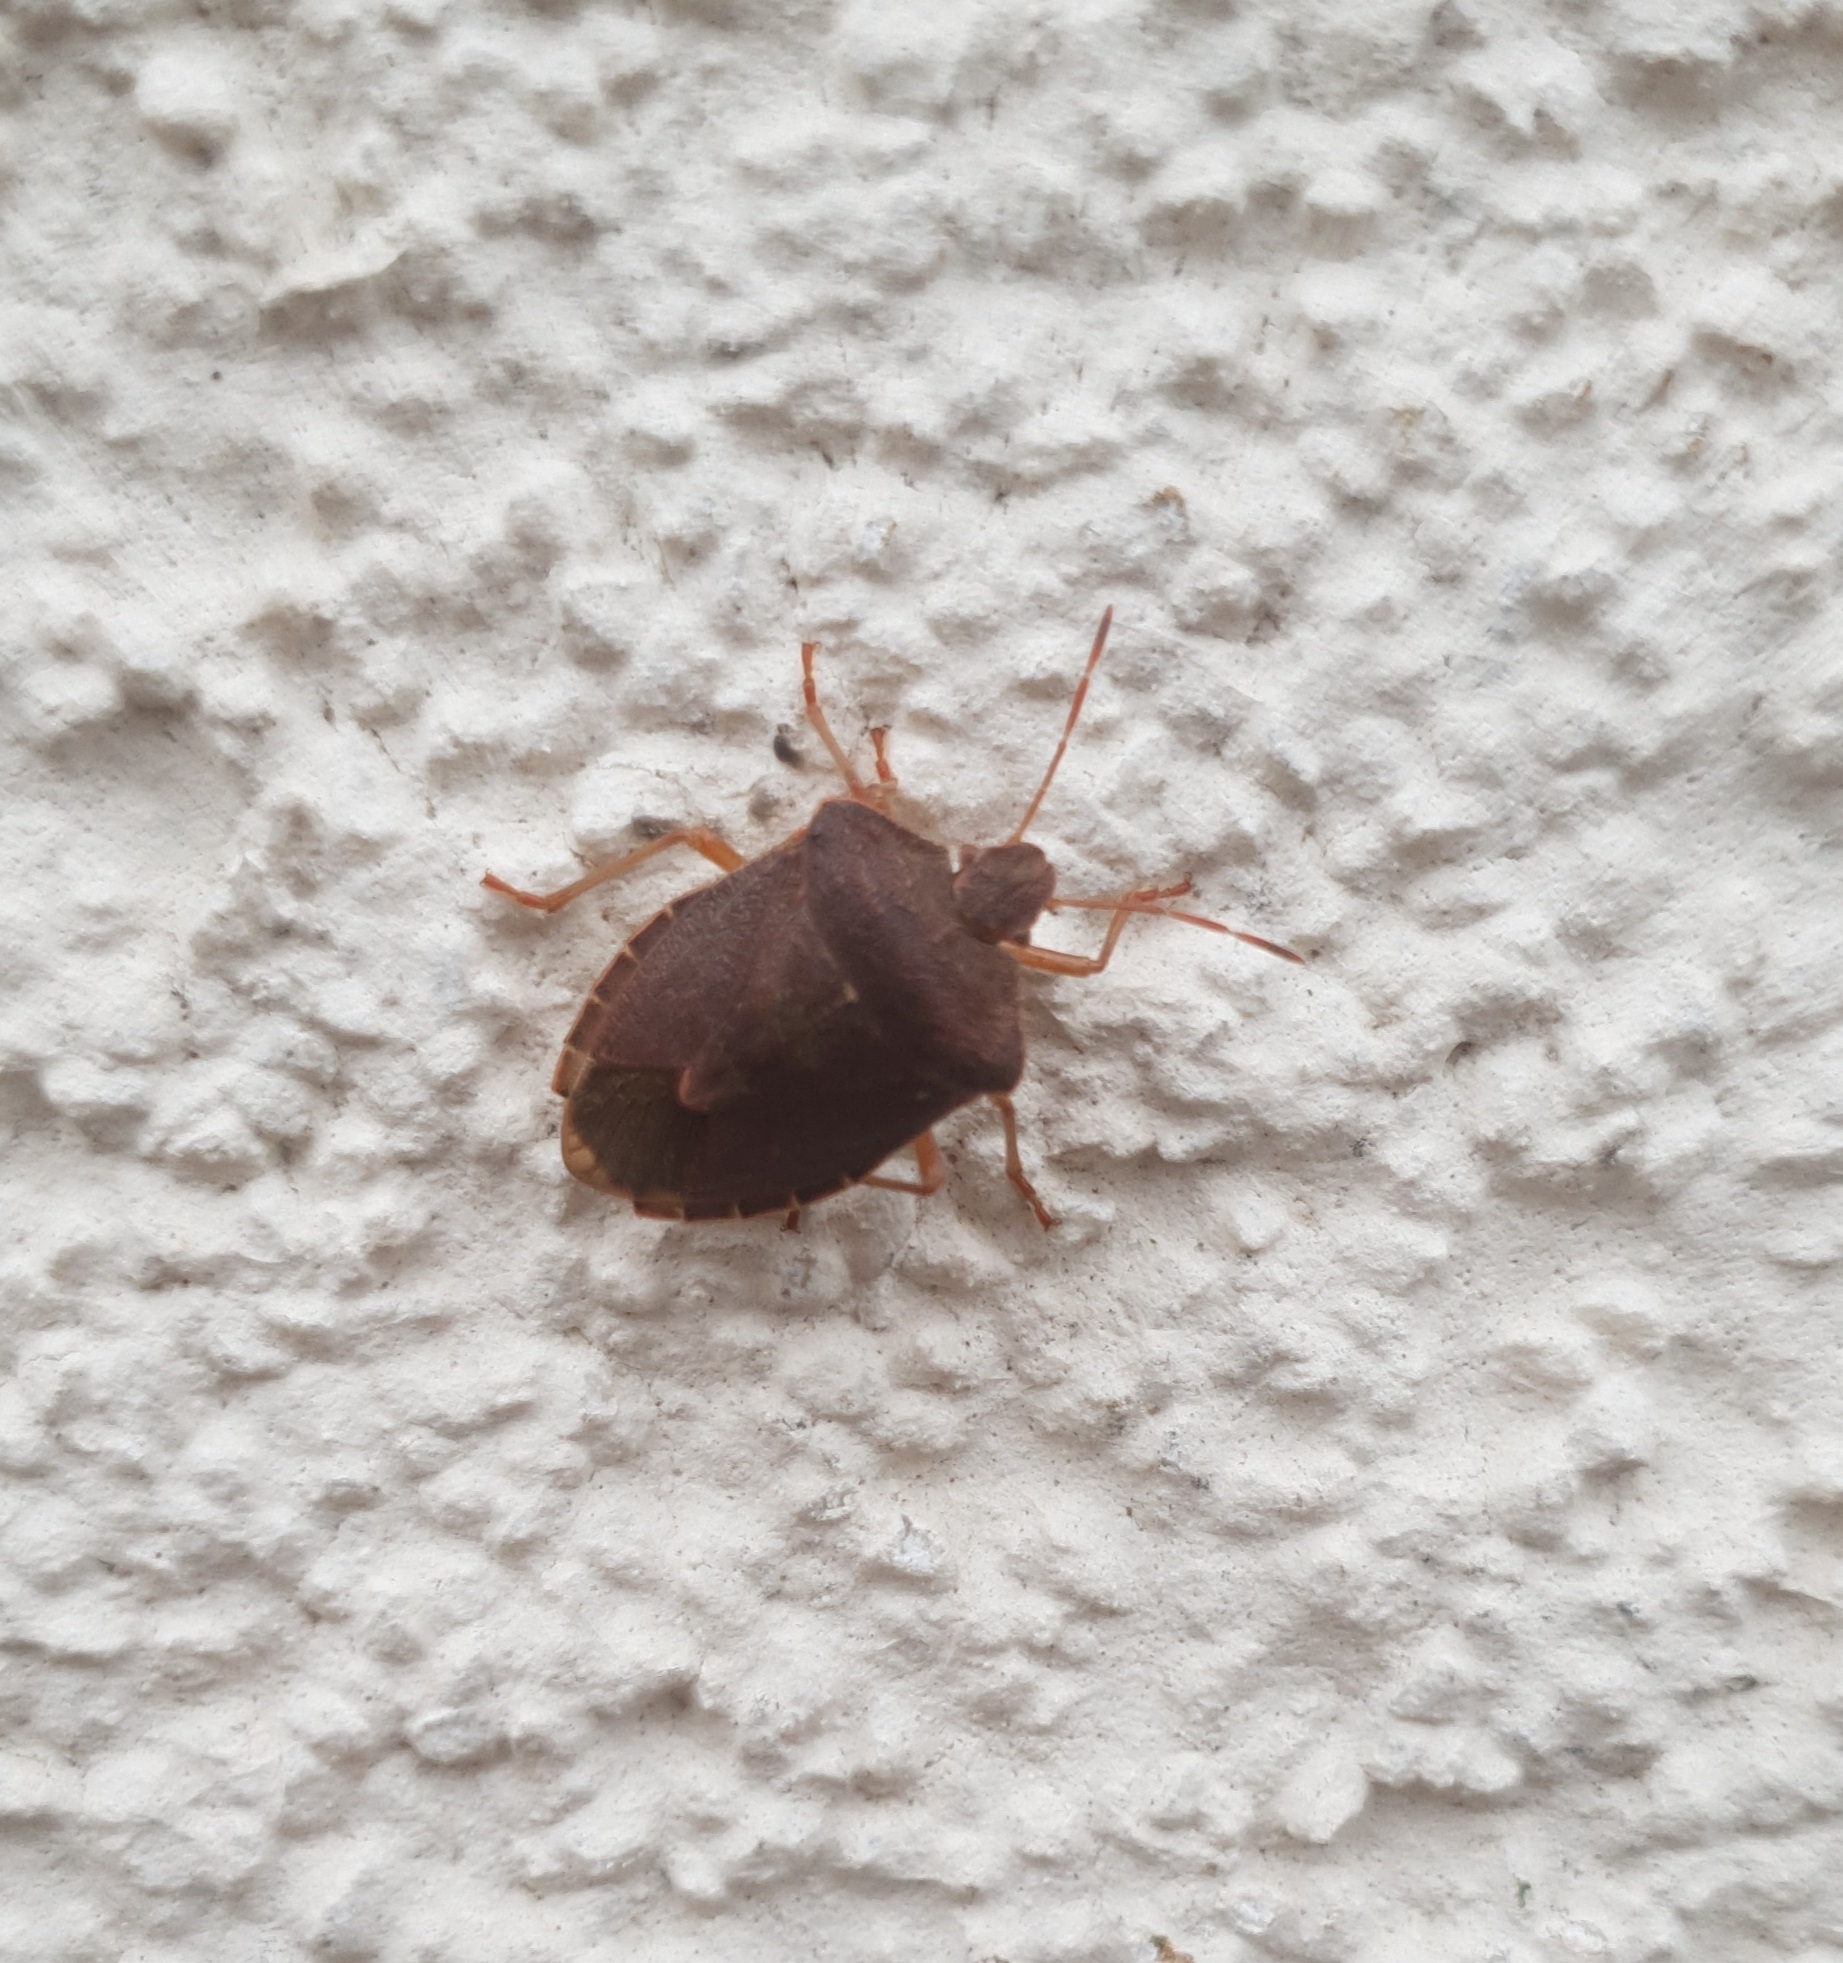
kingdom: Animalia
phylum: Arthropoda
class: Insecta
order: Hemiptera
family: Pentatomidae
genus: Palomena
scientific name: Palomena prasina
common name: Green shieldbug
